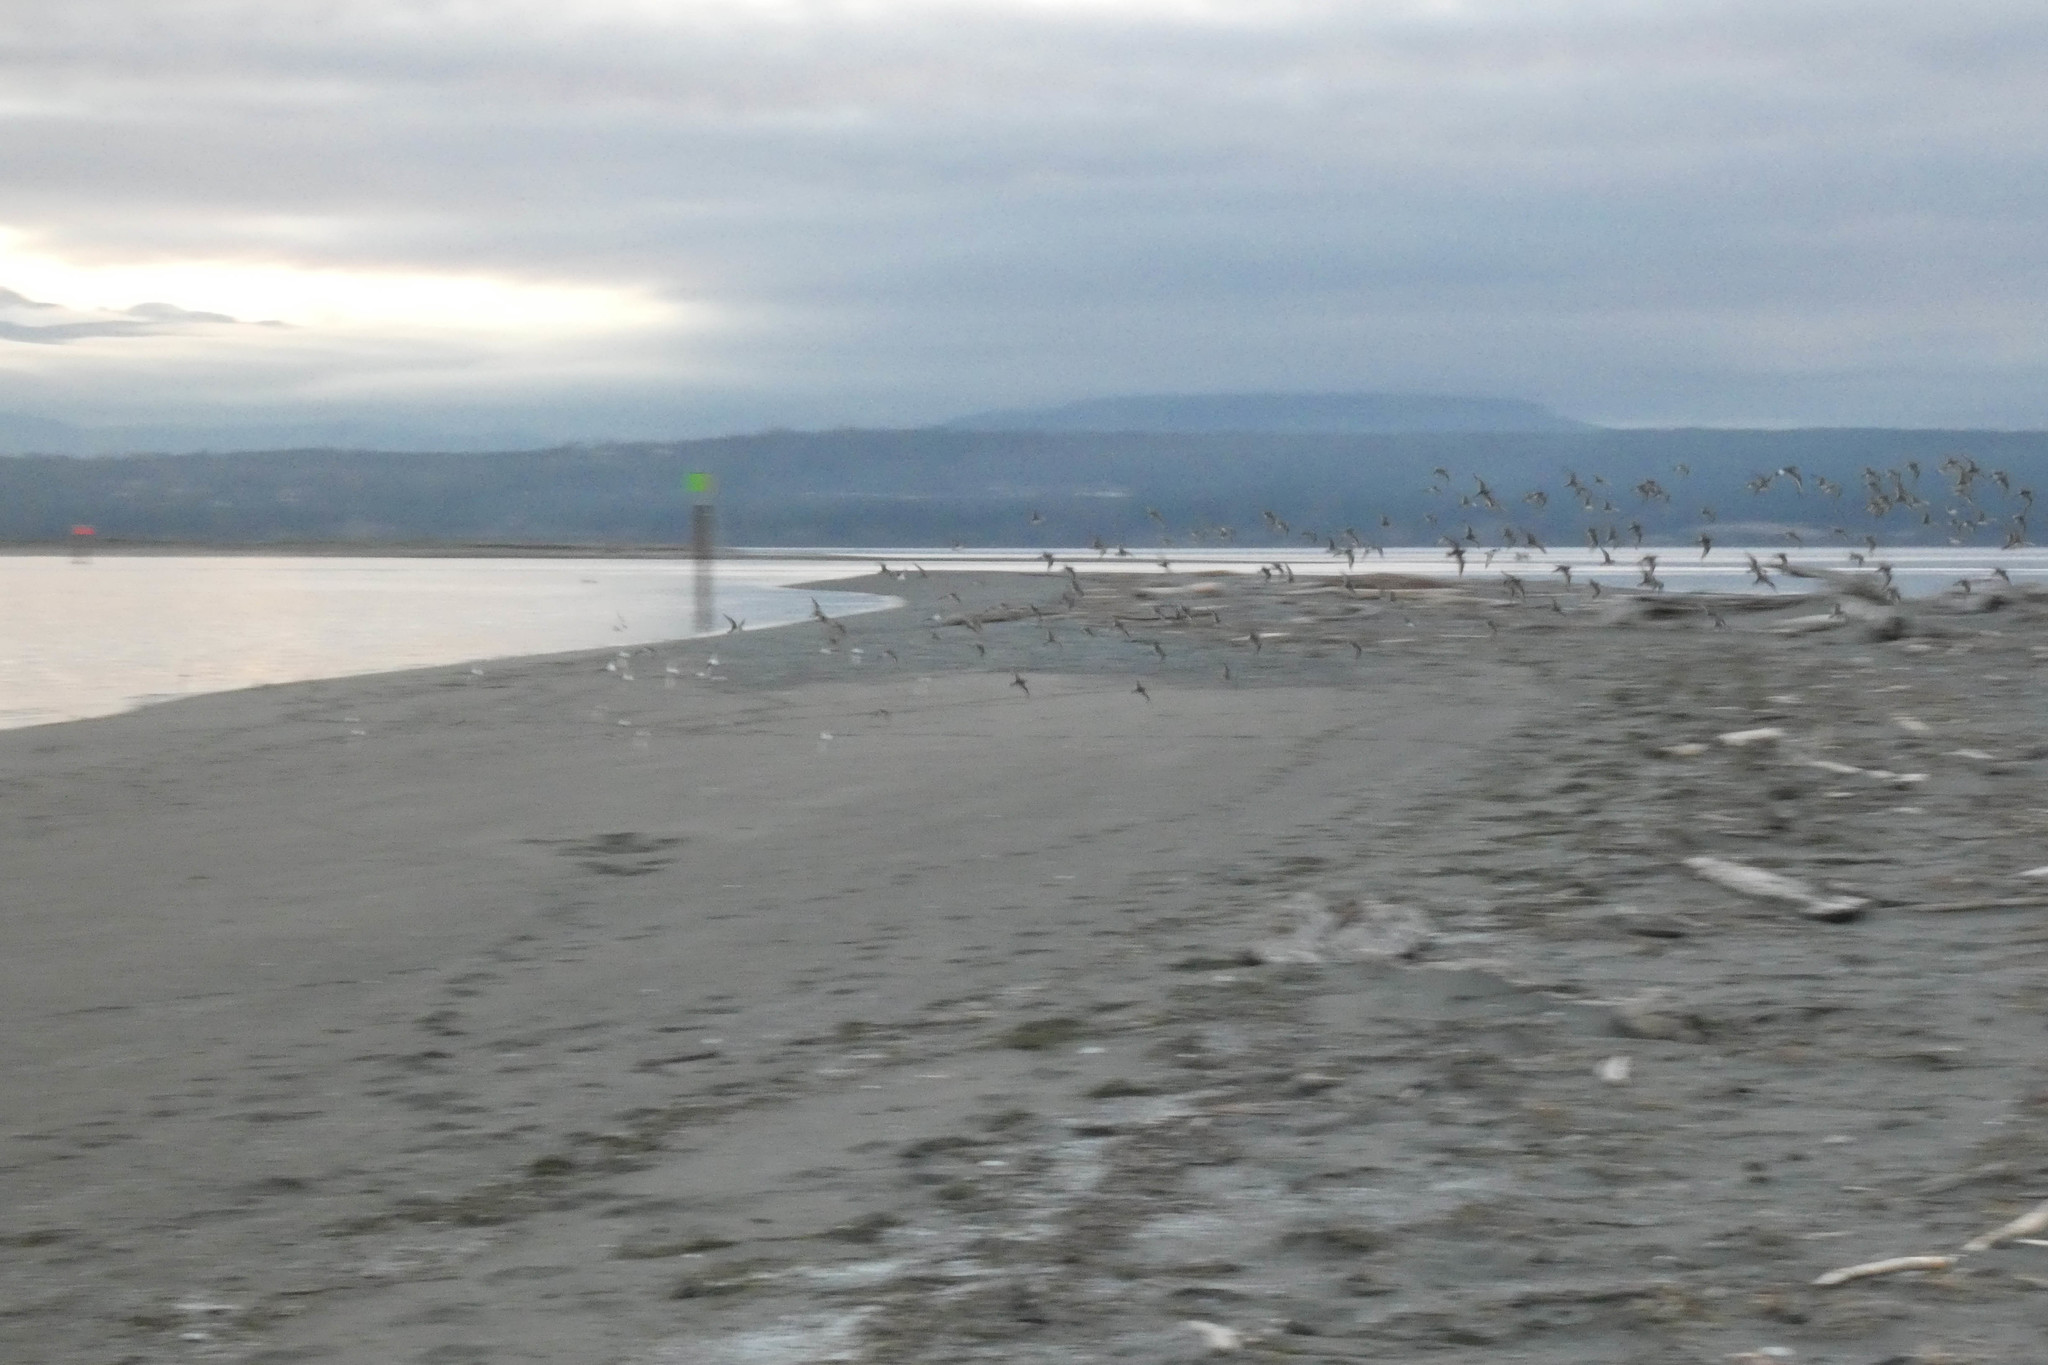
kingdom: Animalia
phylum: Chordata
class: Aves
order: Charadriiformes
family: Scolopacidae
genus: Calidris
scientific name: Calidris alpina
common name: Dunlin
